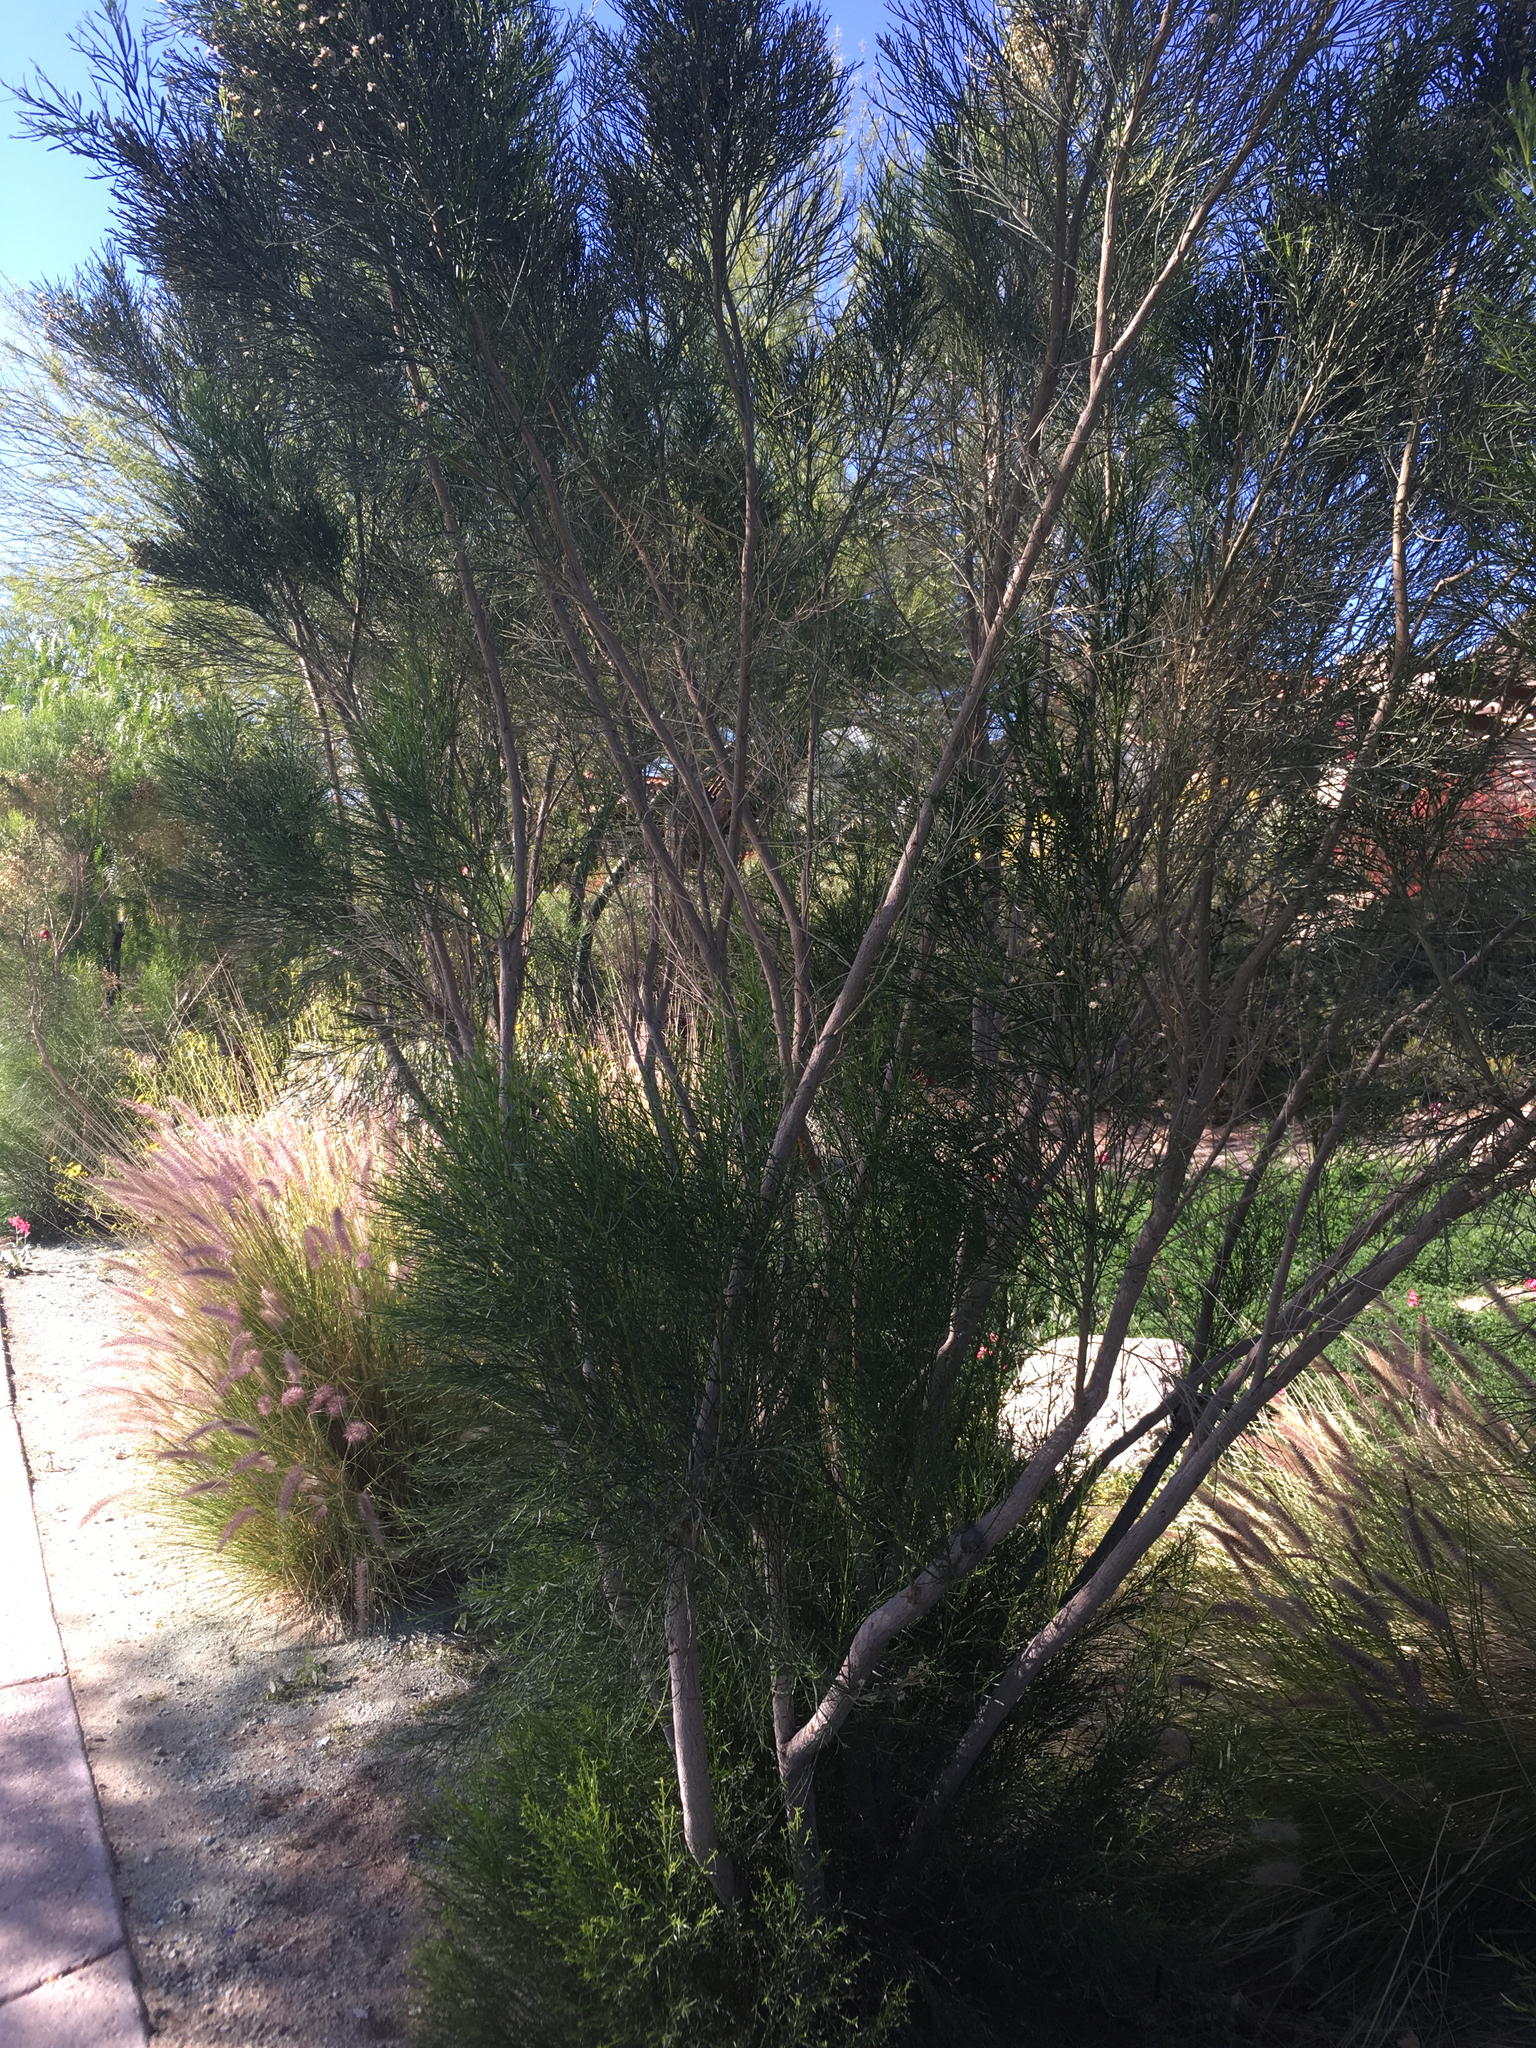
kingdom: Plantae
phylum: Tracheophyta
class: Magnoliopsida
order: Asterales
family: Asteraceae
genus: Baccharis
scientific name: Baccharis sarothroides
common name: Desert-broom
